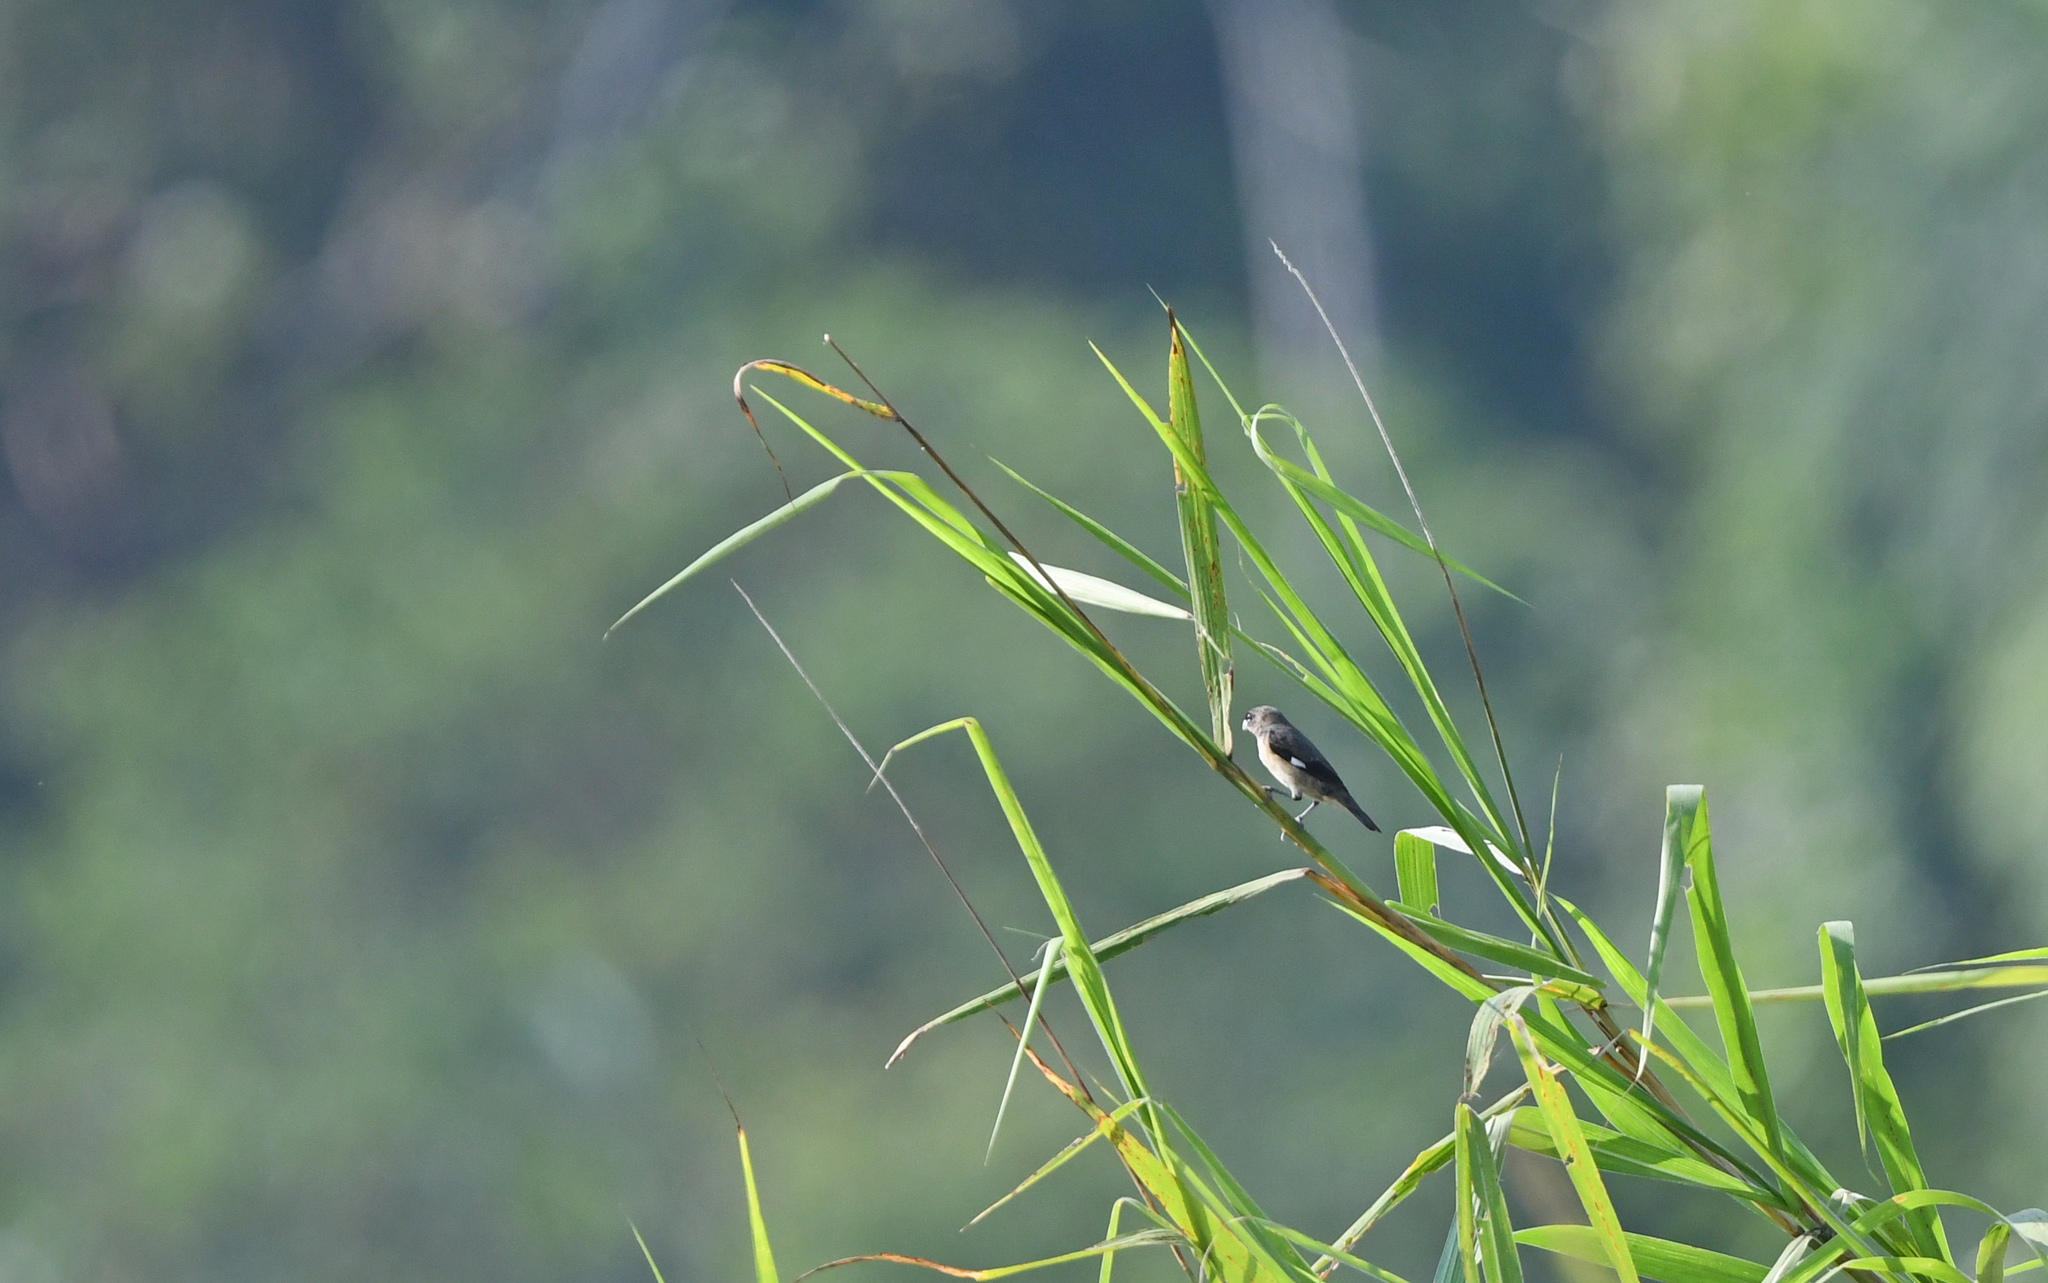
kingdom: Animalia
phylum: Chordata
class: Aves
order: Passeriformes
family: Thraupidae
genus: Sporophila
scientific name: Sporophila luctuosa
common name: Black-and-white seedeater
